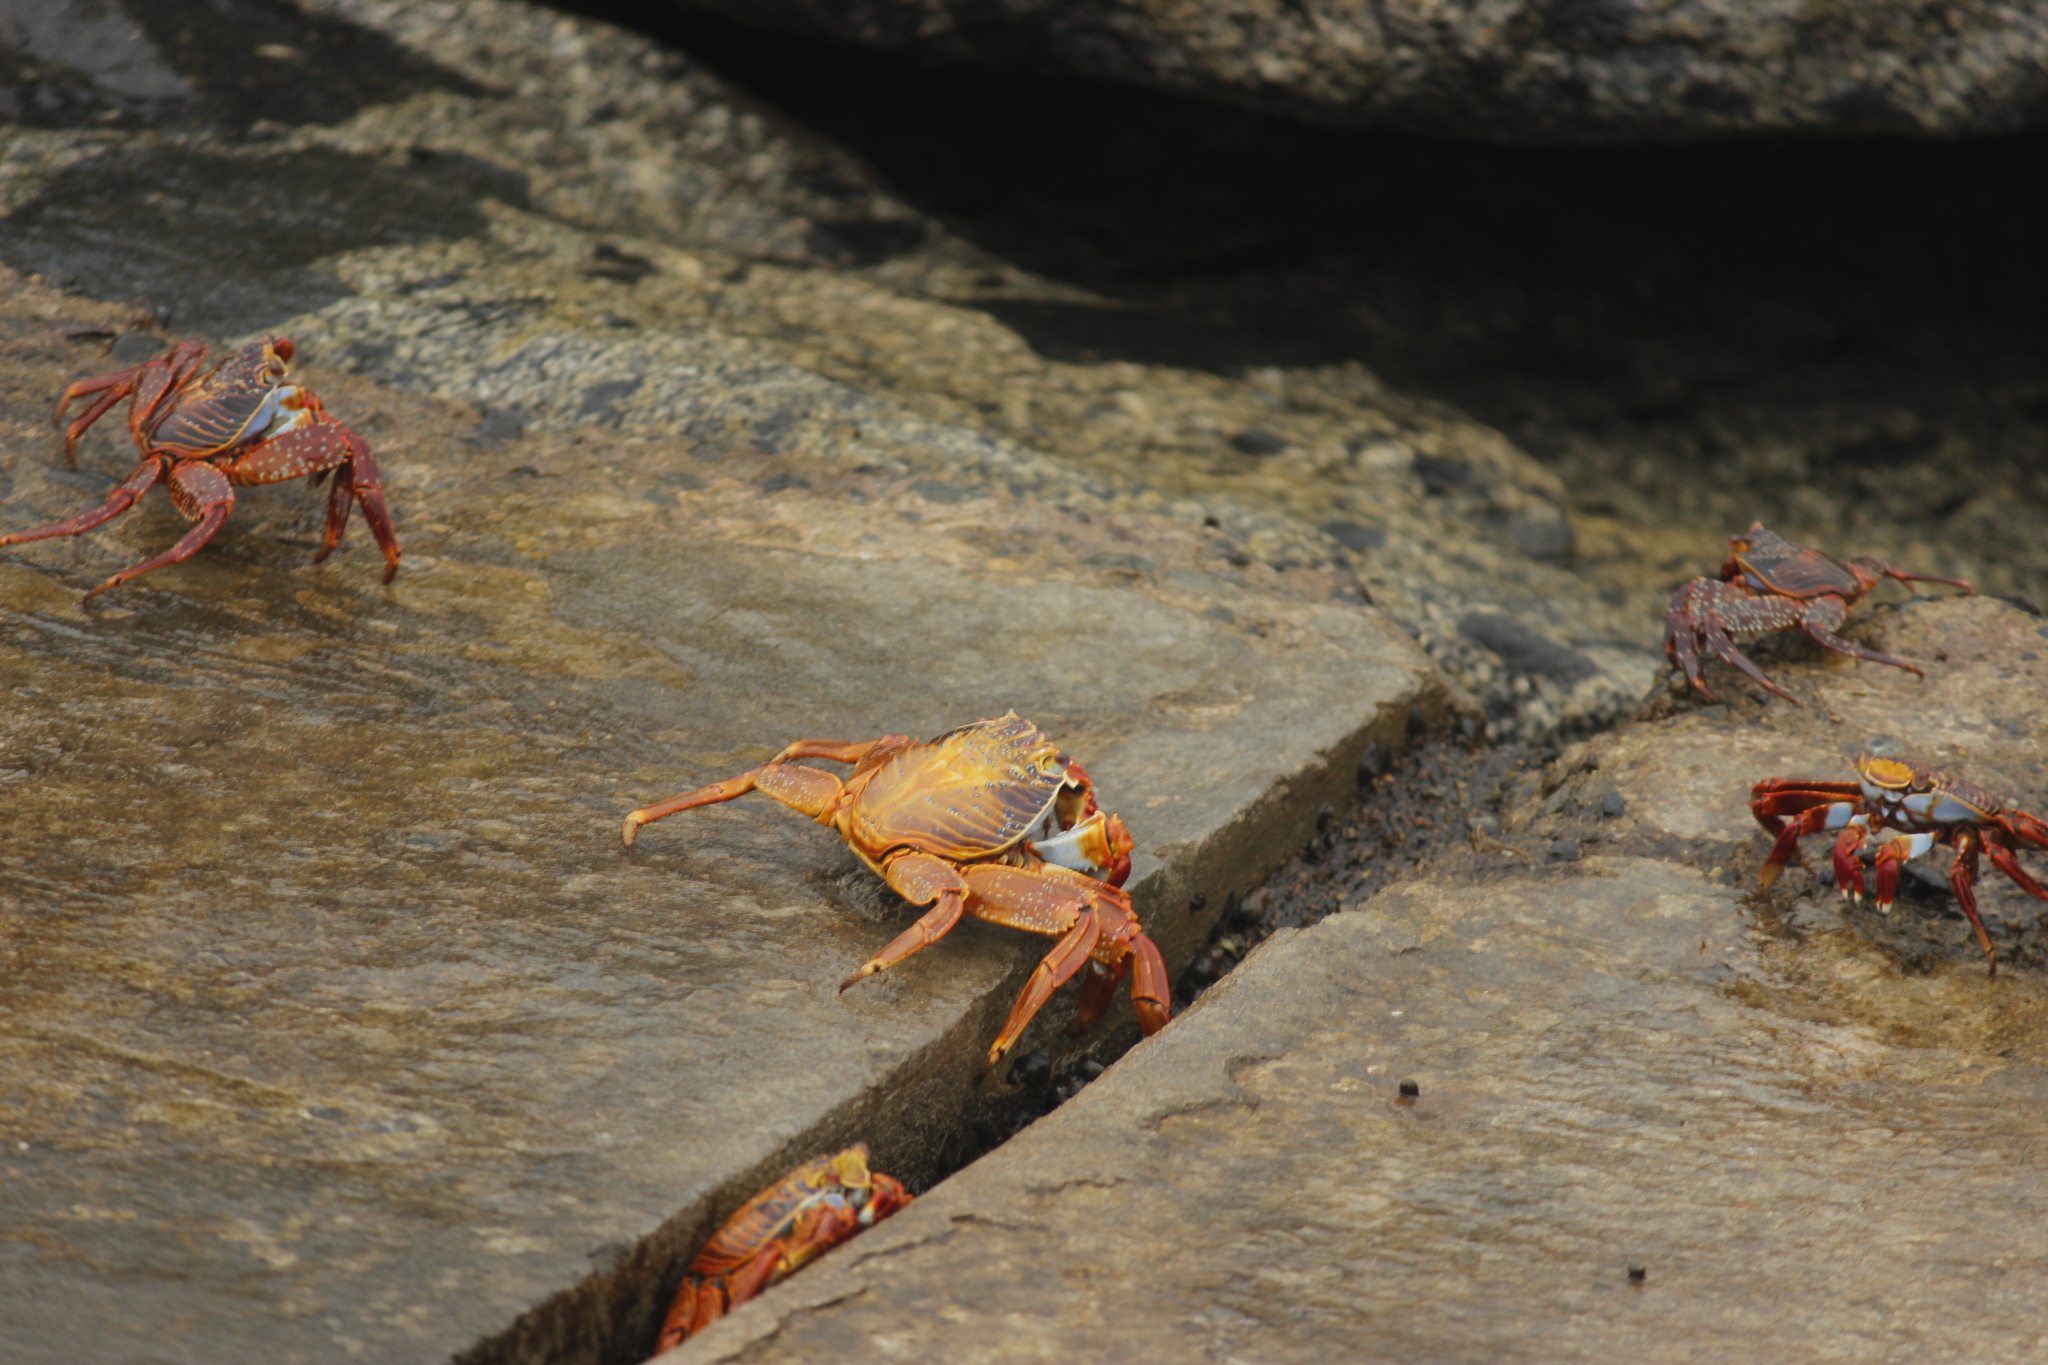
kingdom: Animalia
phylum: Arthropoda
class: Malacostraca
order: Decapoda
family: Grapsidae
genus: Grapsus
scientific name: Grapsus grapsus
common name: Sally lightfoot
